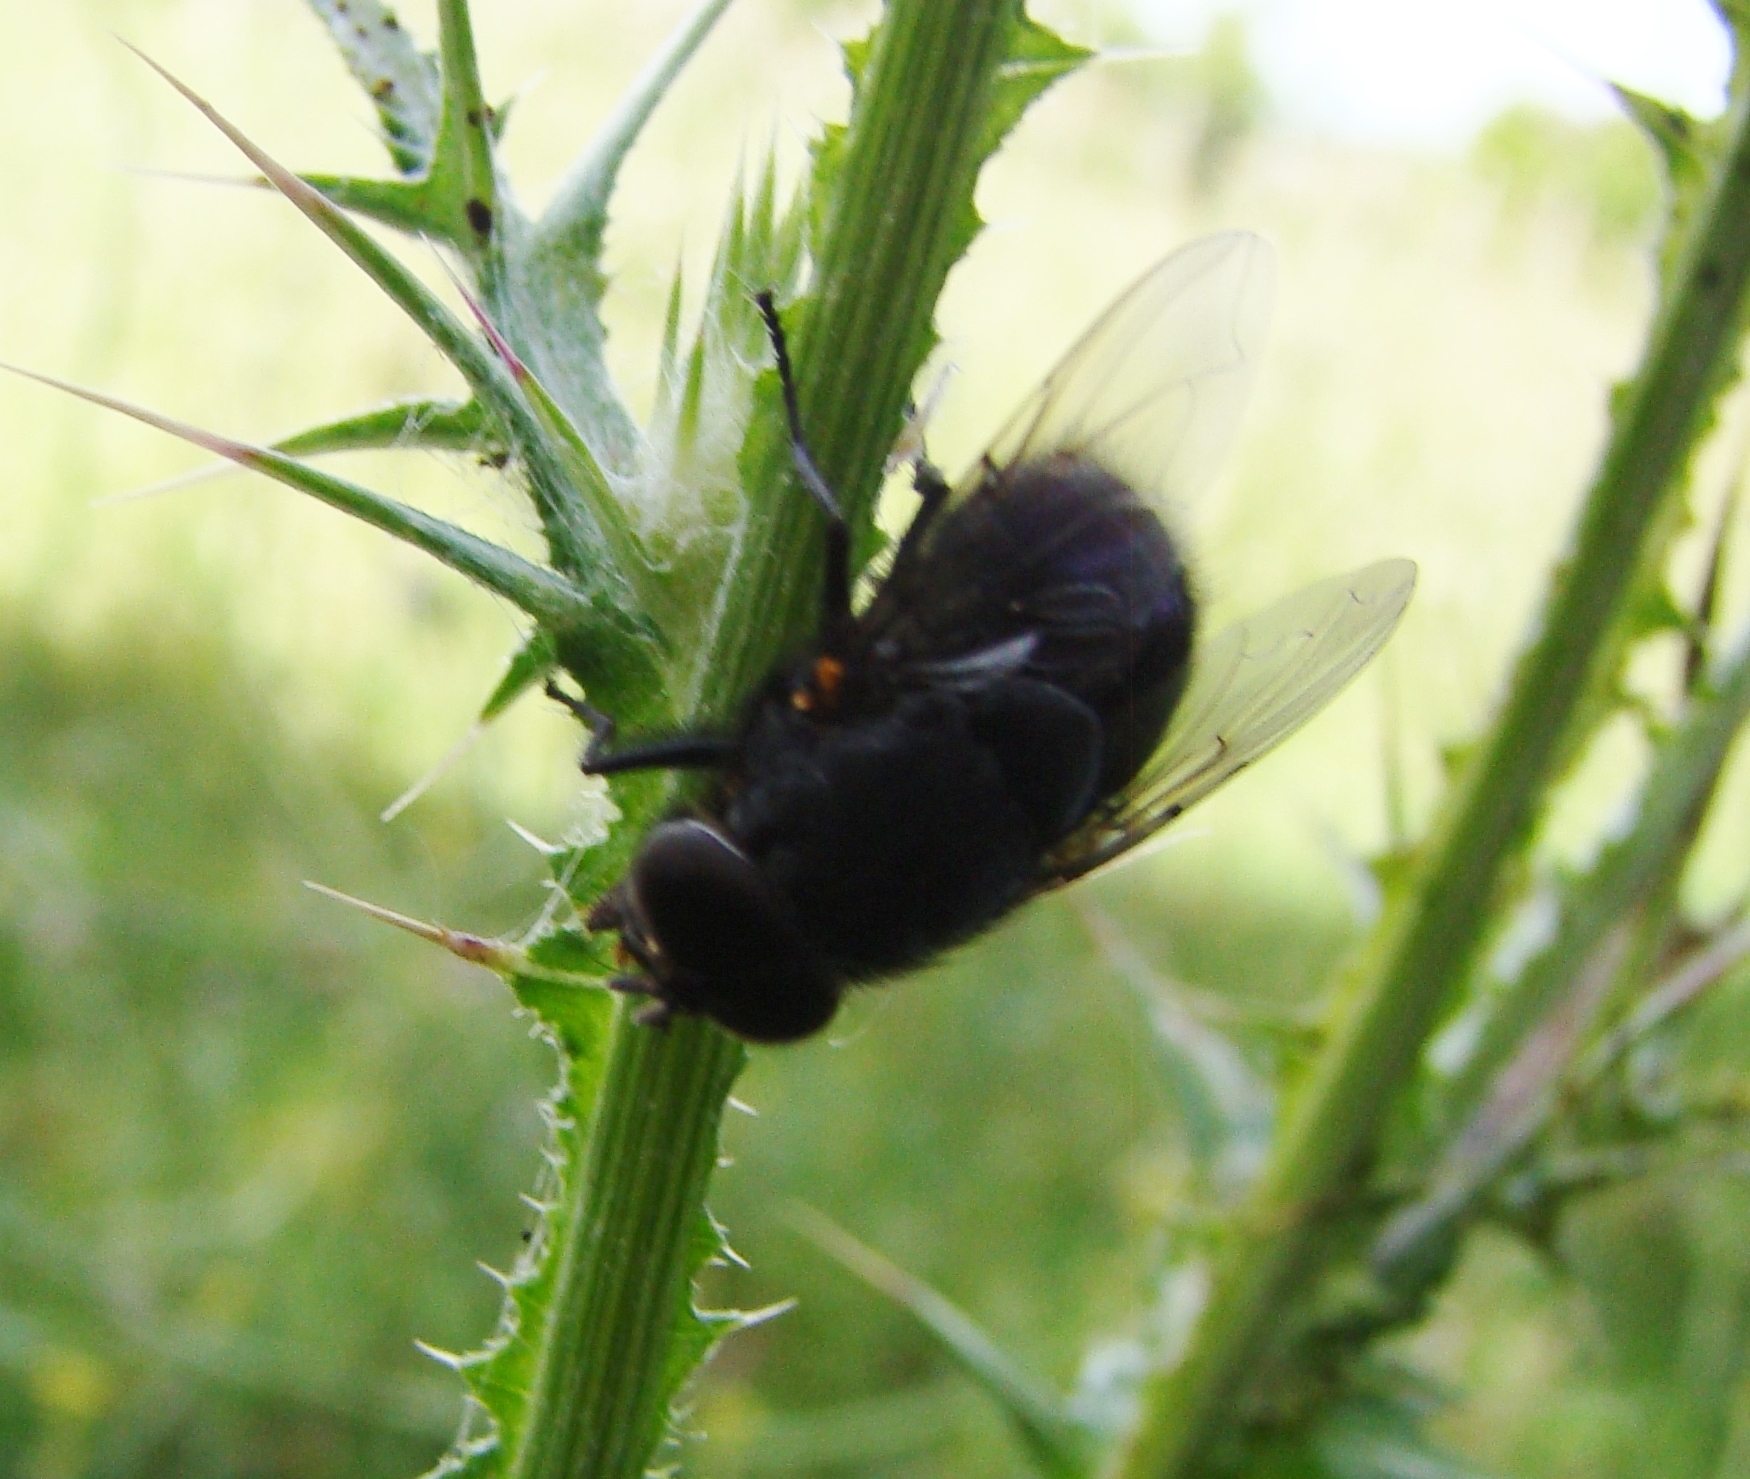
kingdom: Animalia
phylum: Arthropoda
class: Insecta
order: Diptera
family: Calliphoridae
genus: Calliphora
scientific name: Calliphora quadrimaculata
